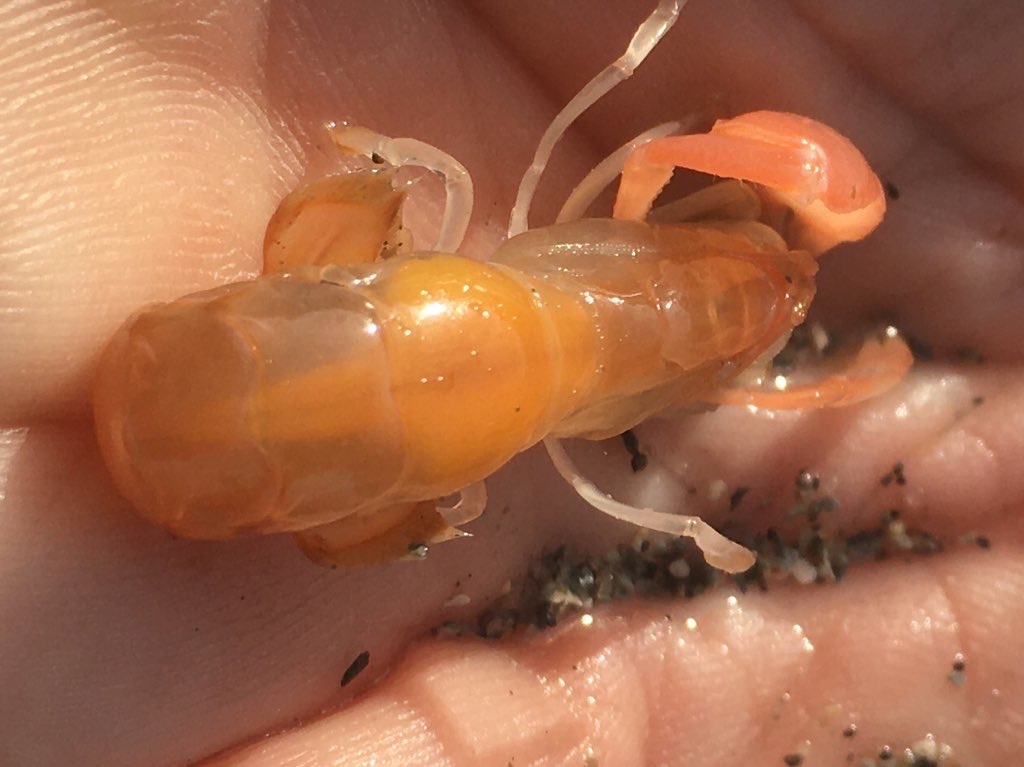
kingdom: Animalia
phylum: Arthropoda
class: Malacostraca
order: Decapoda
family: Callianassidae
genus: Neotrypaea
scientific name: Neotrypaea californiensis
